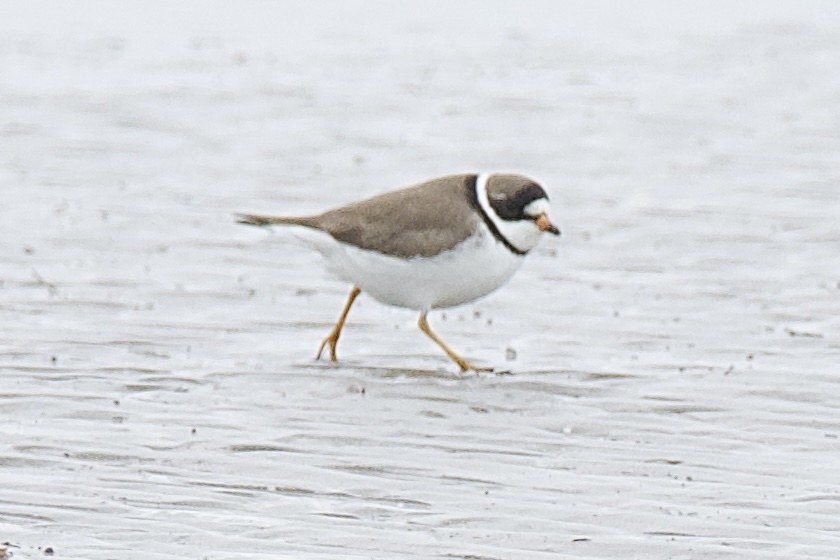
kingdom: Animalia
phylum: Chordata
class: Aves
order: Charadriiformes
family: Charadriidae
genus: Charadrius
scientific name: Charadrius semipalmatus
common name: Semipalmated plover
